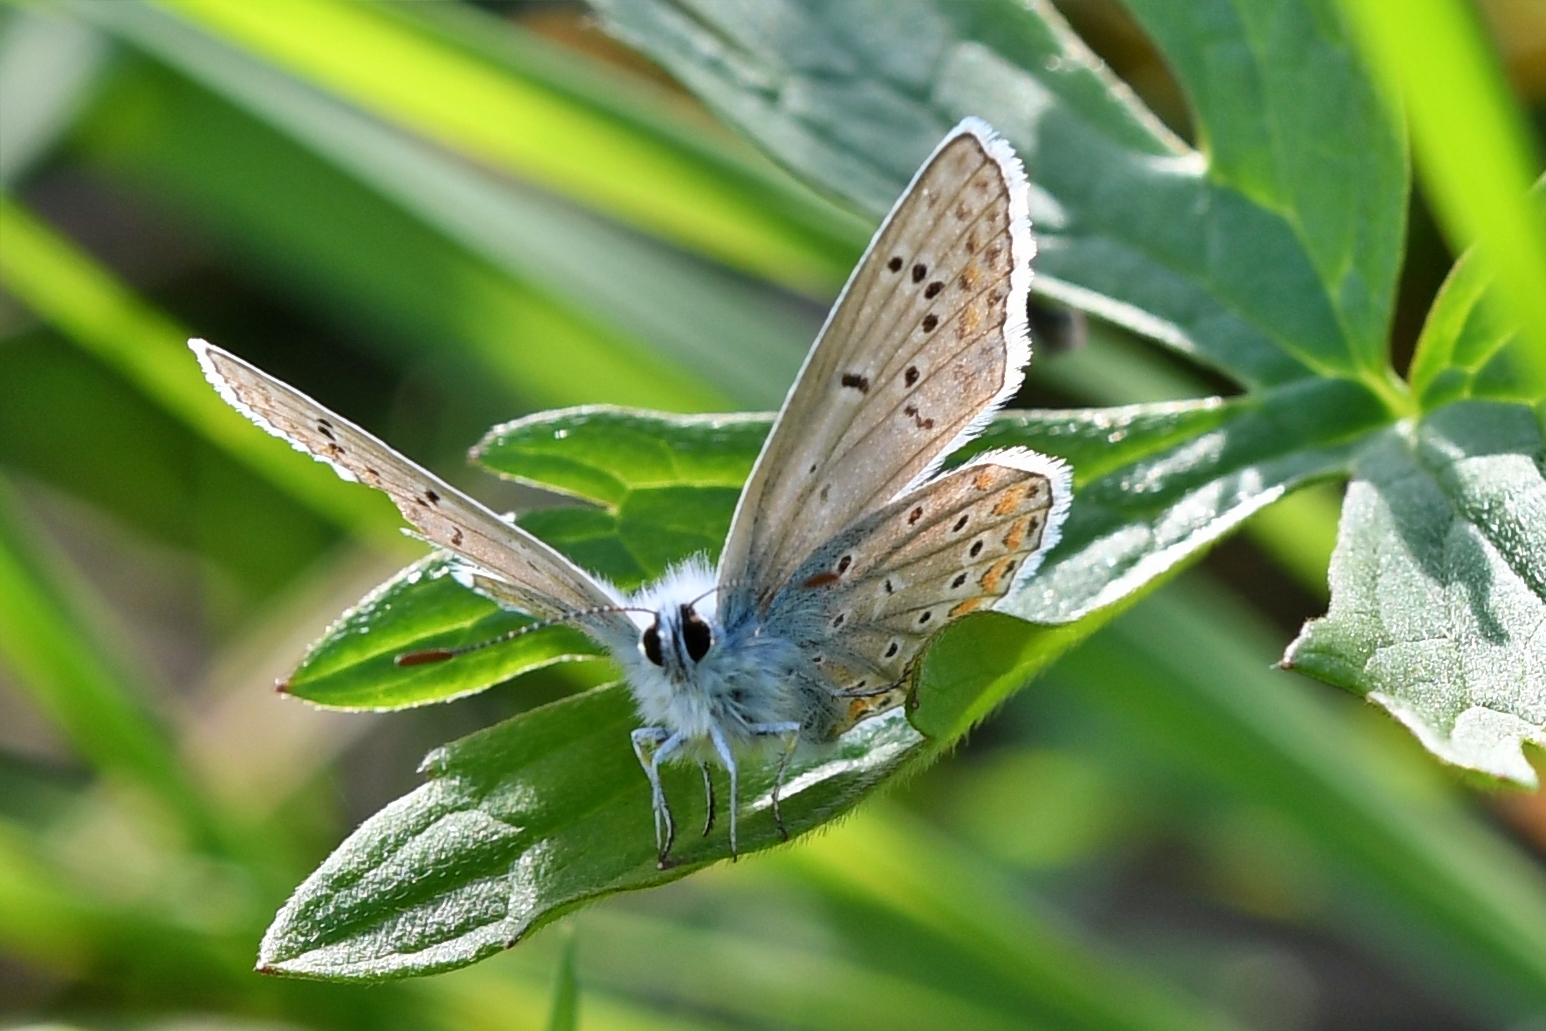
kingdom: Animalia
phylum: Arthropoda
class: Insecta
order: Lepidoptera
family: Lycaenidae
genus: Polyommatus
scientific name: Polyommatus icarus
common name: Common blue
